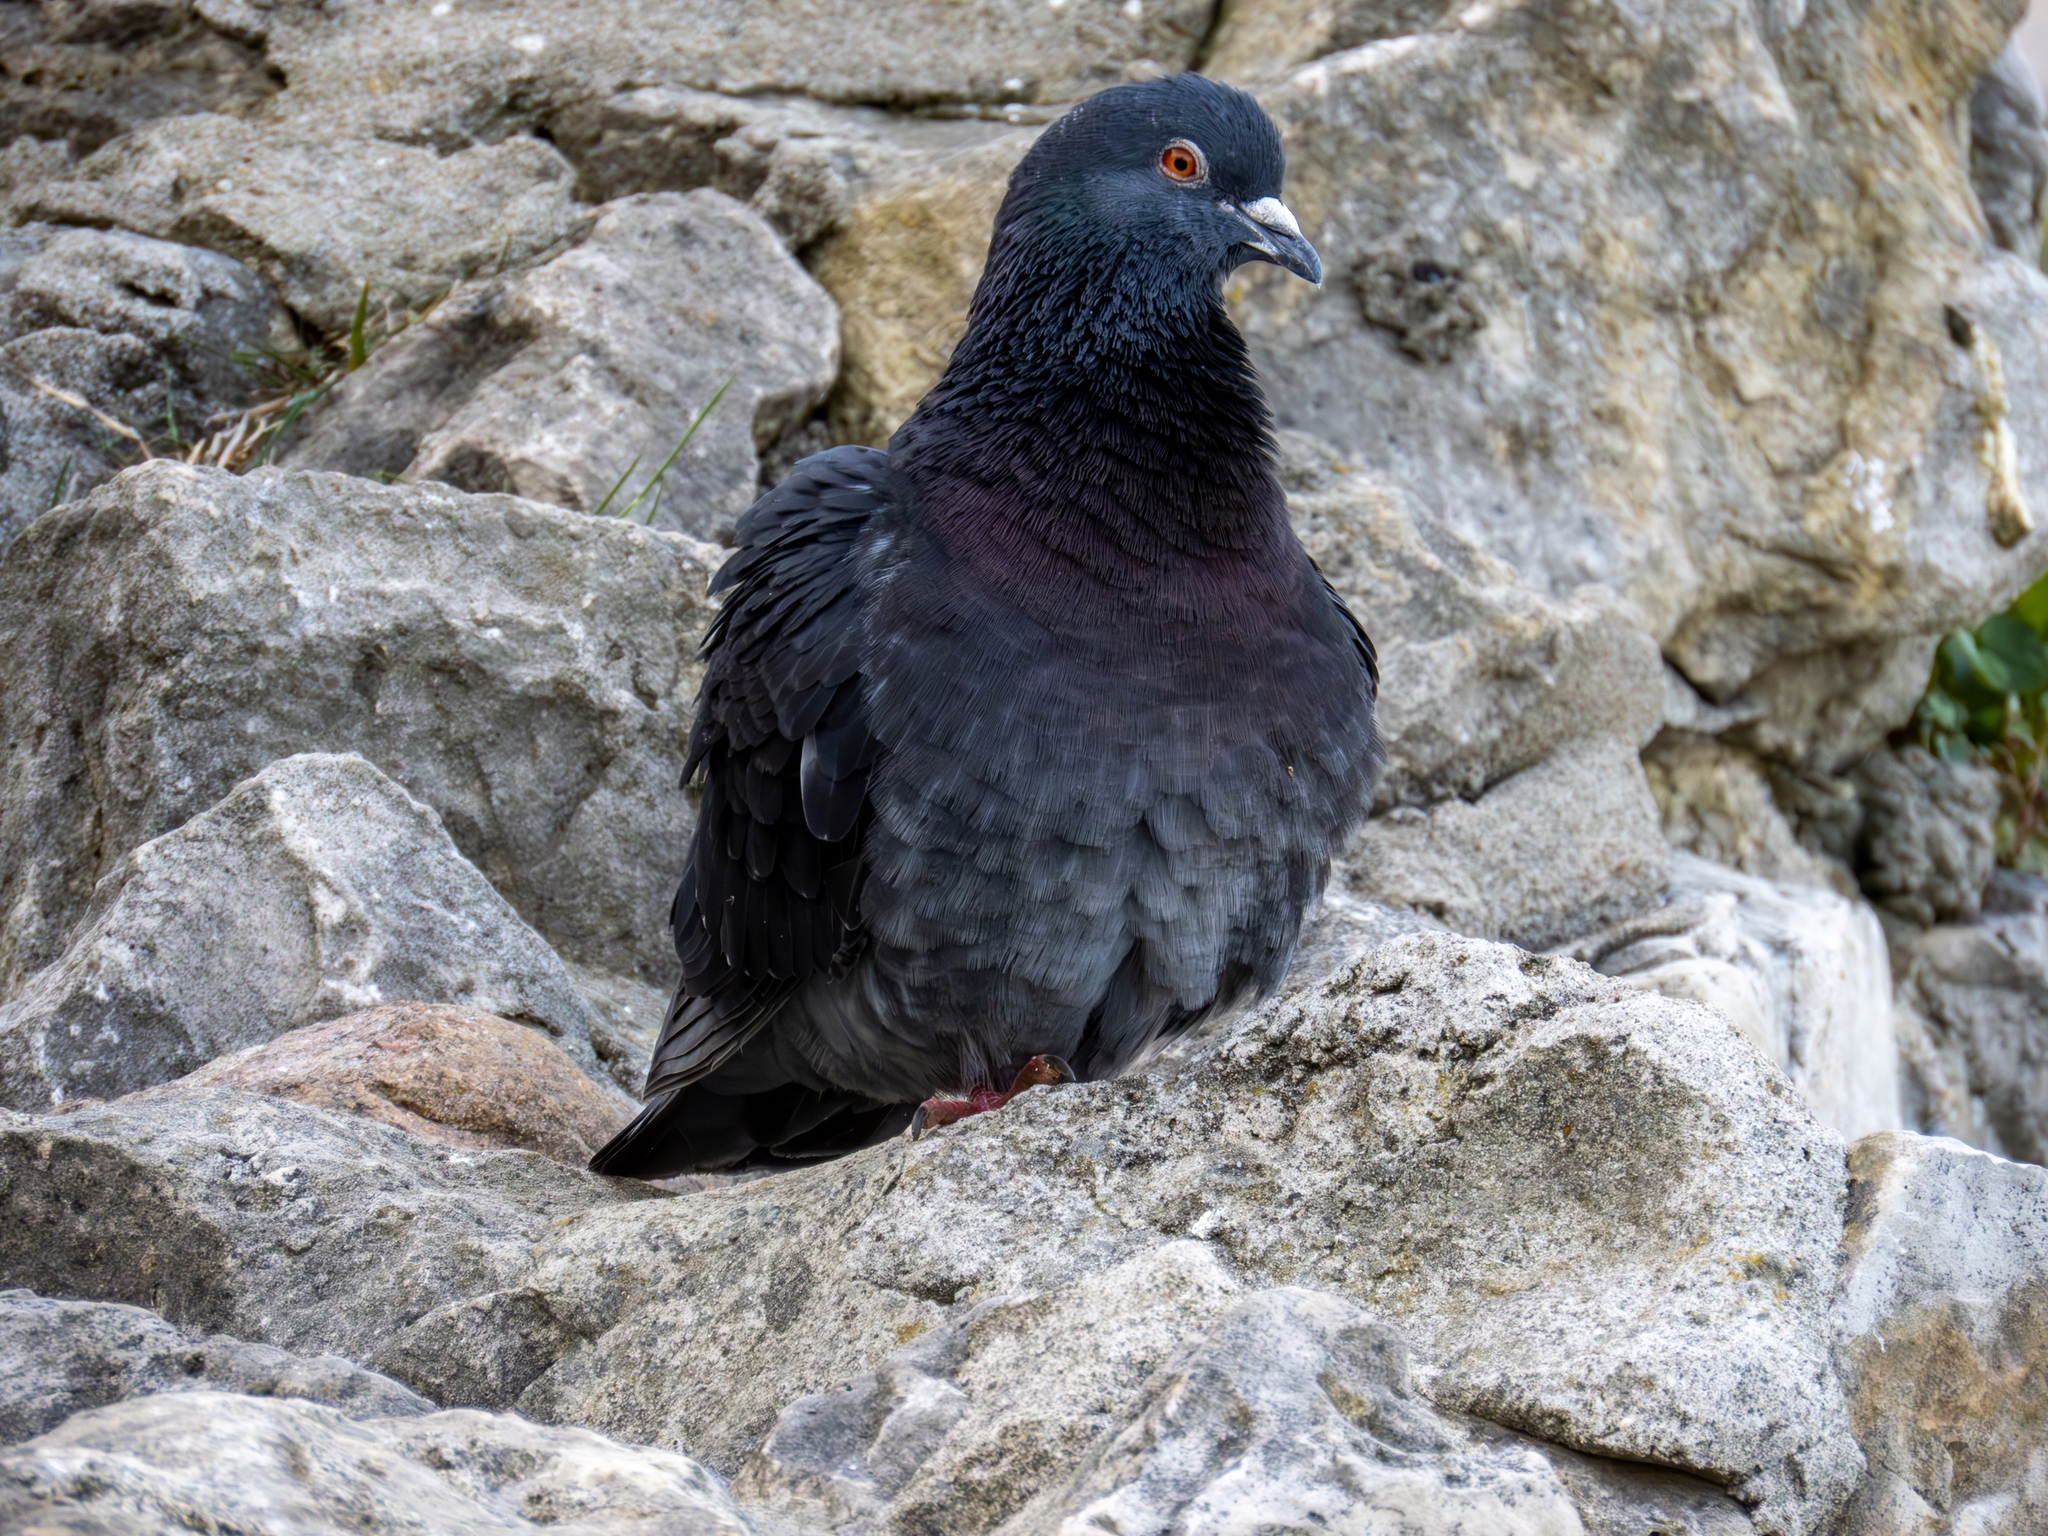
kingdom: Animalia
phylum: Chordata
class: Aves
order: Columbiformes
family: Columbidae
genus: Columba
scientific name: Columba livia
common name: Rock pigeon
